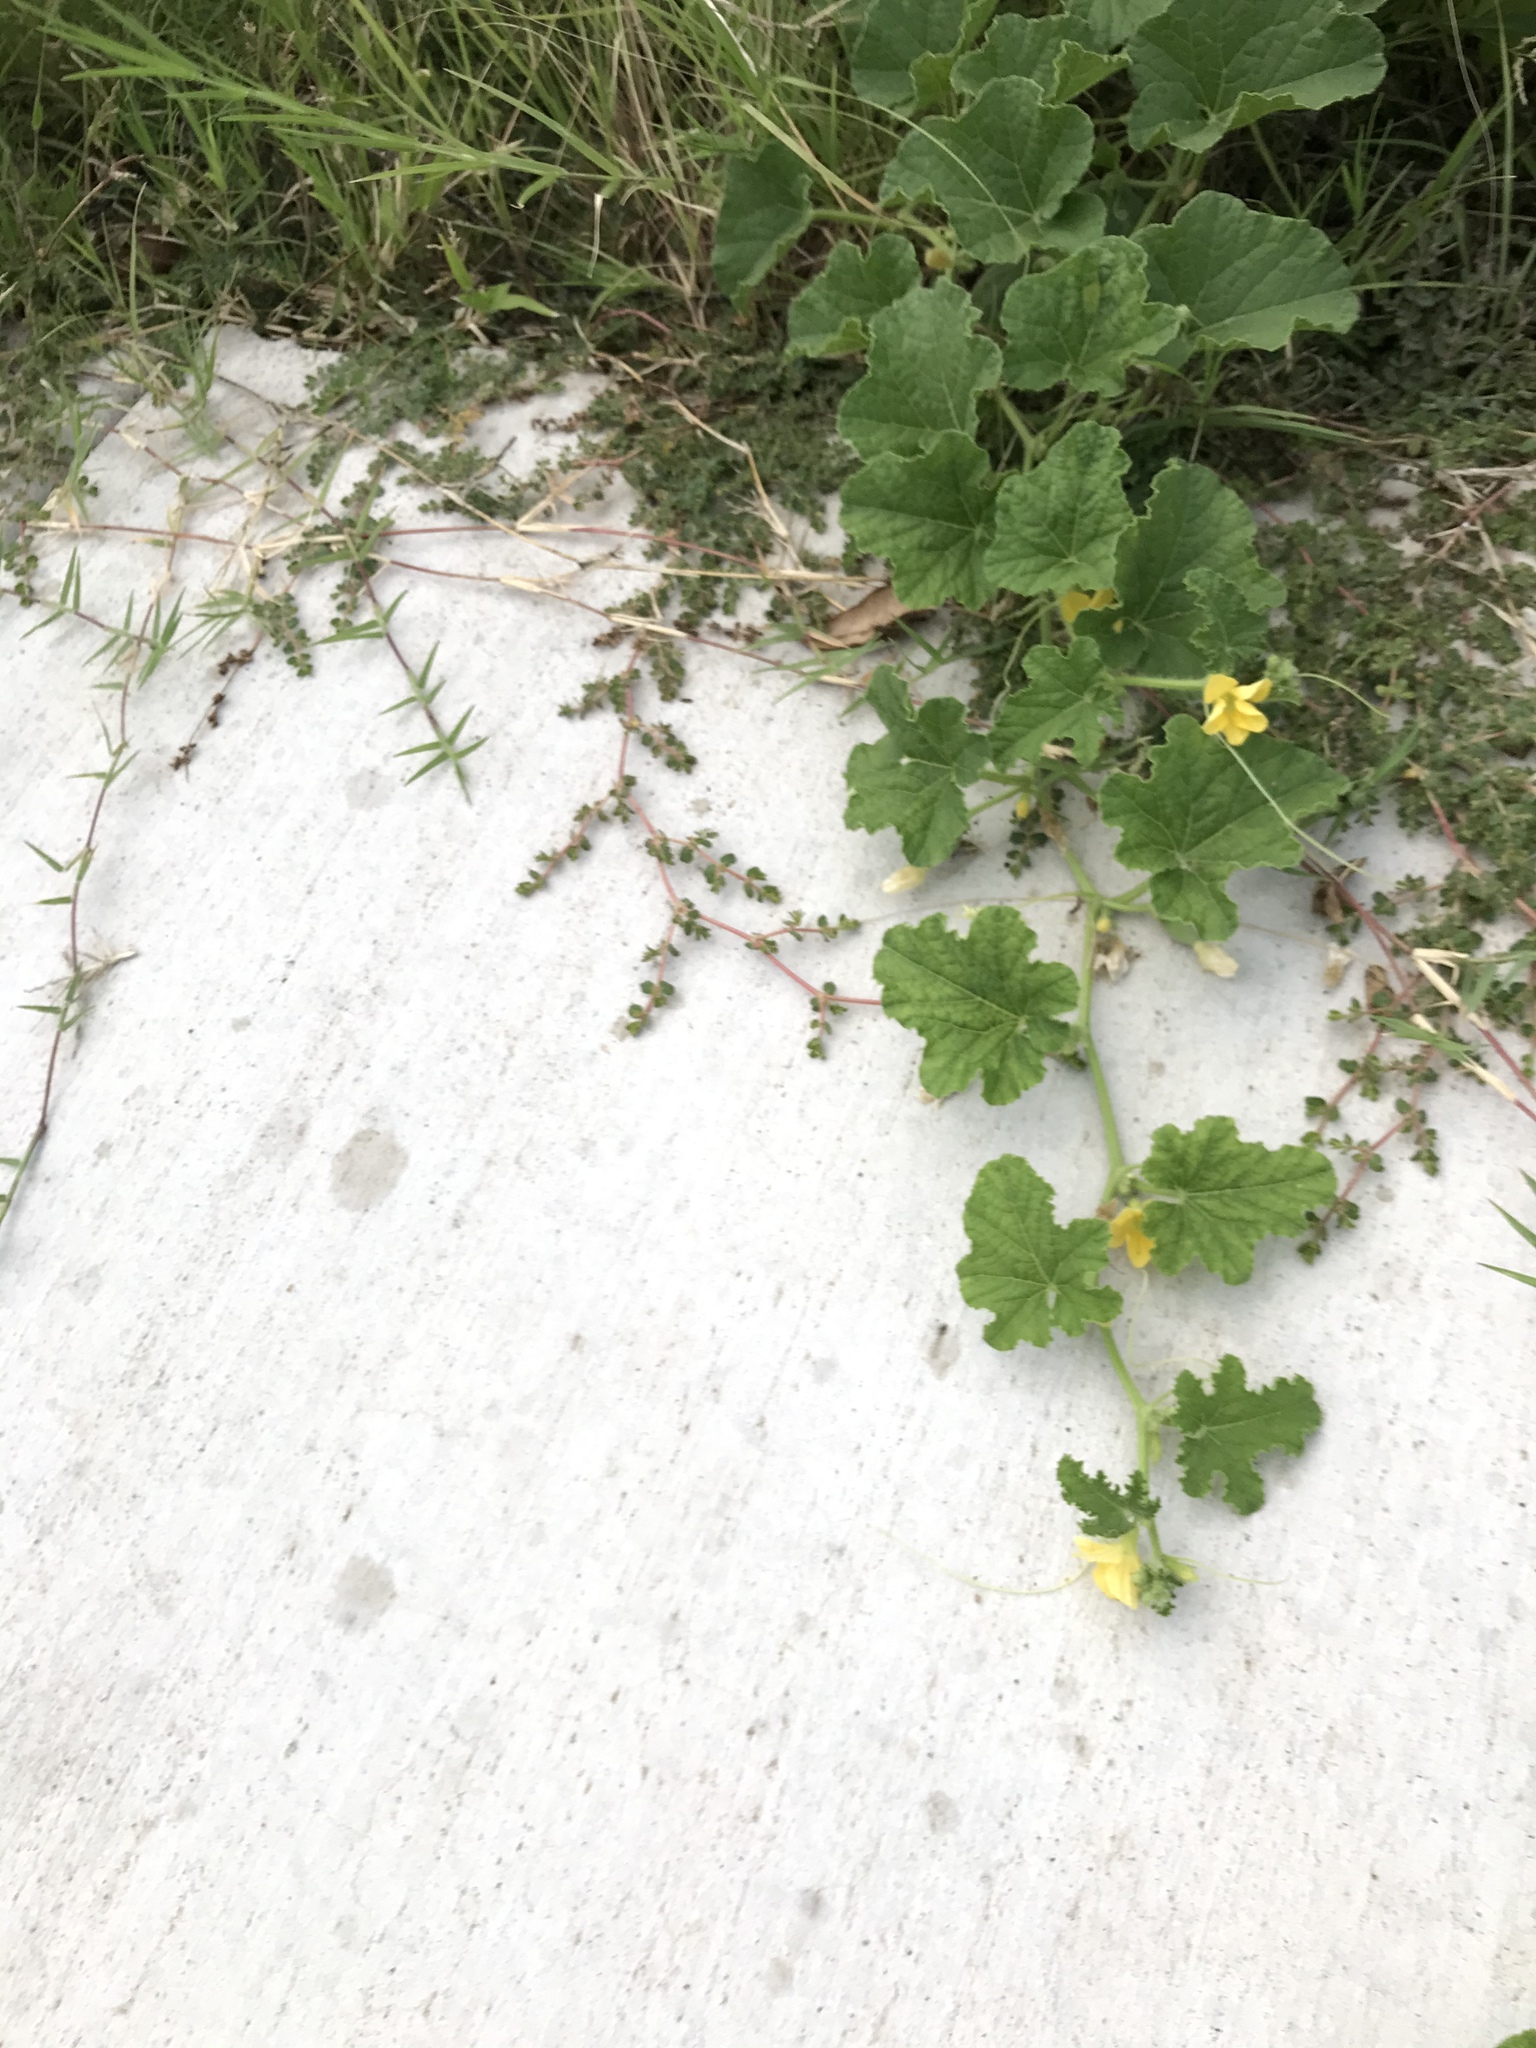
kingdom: Plantae
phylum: Tracheophyta
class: Magnoliopsida
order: Cucurbitales
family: Cucurbitaceae
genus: Cucumis
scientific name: Cucumis melo
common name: Melon
